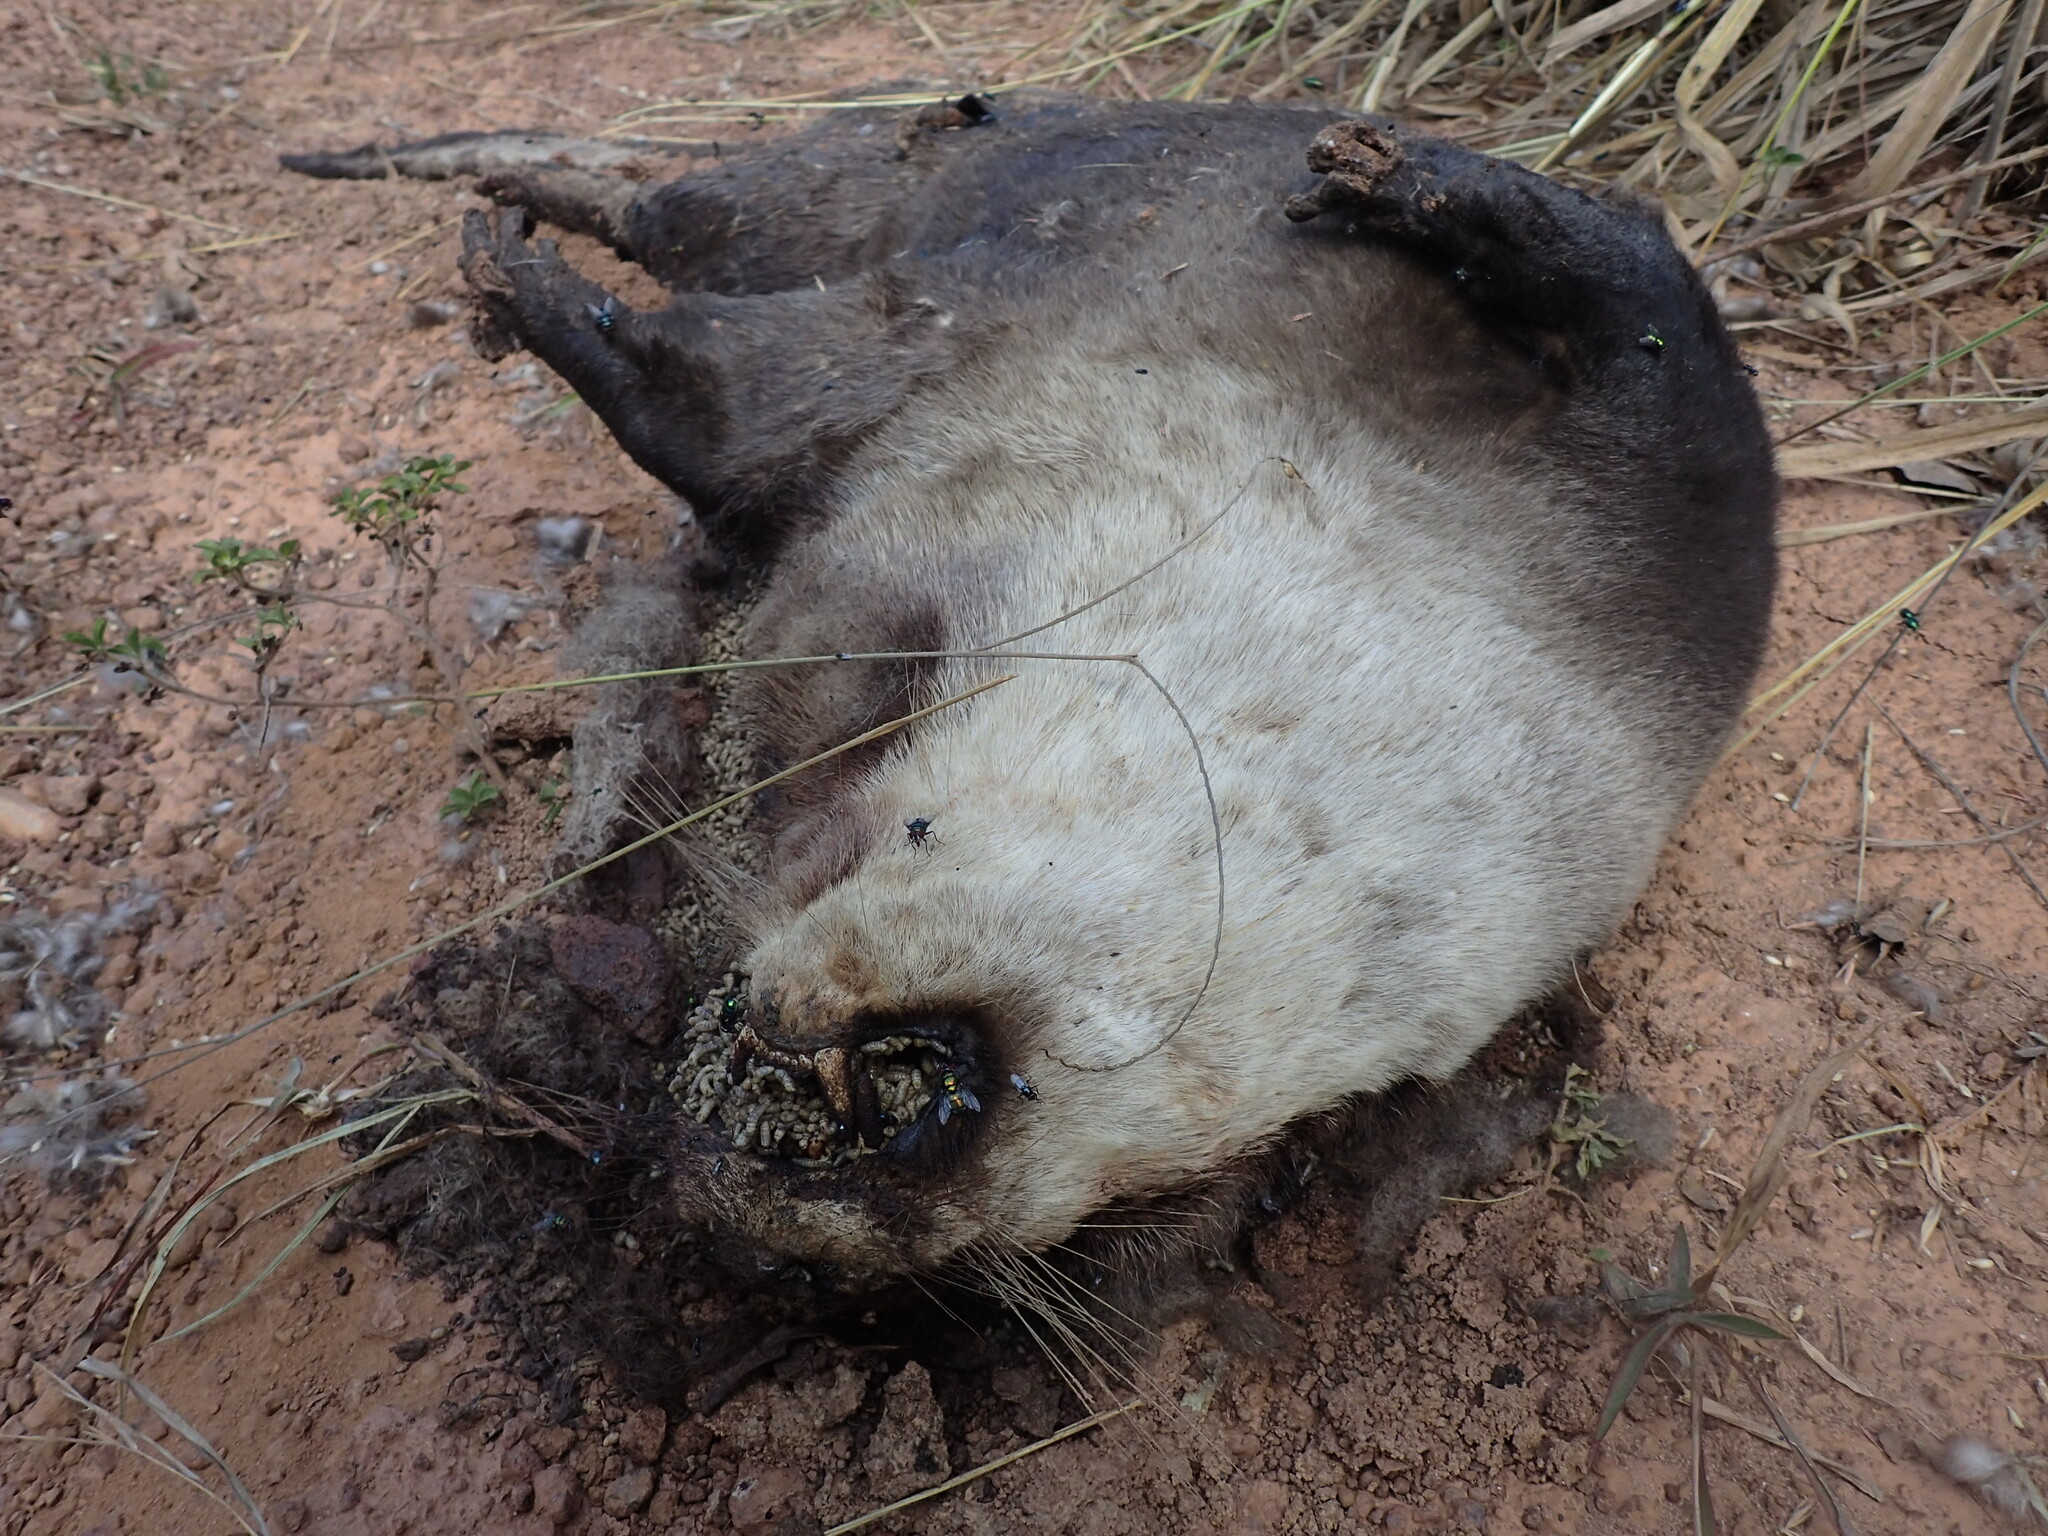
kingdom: Animalia
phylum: Chordata
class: Mammalia
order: Carnivora
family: Mustelidae
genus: Aonyx
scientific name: Aonyx capensis
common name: African clawless otter
